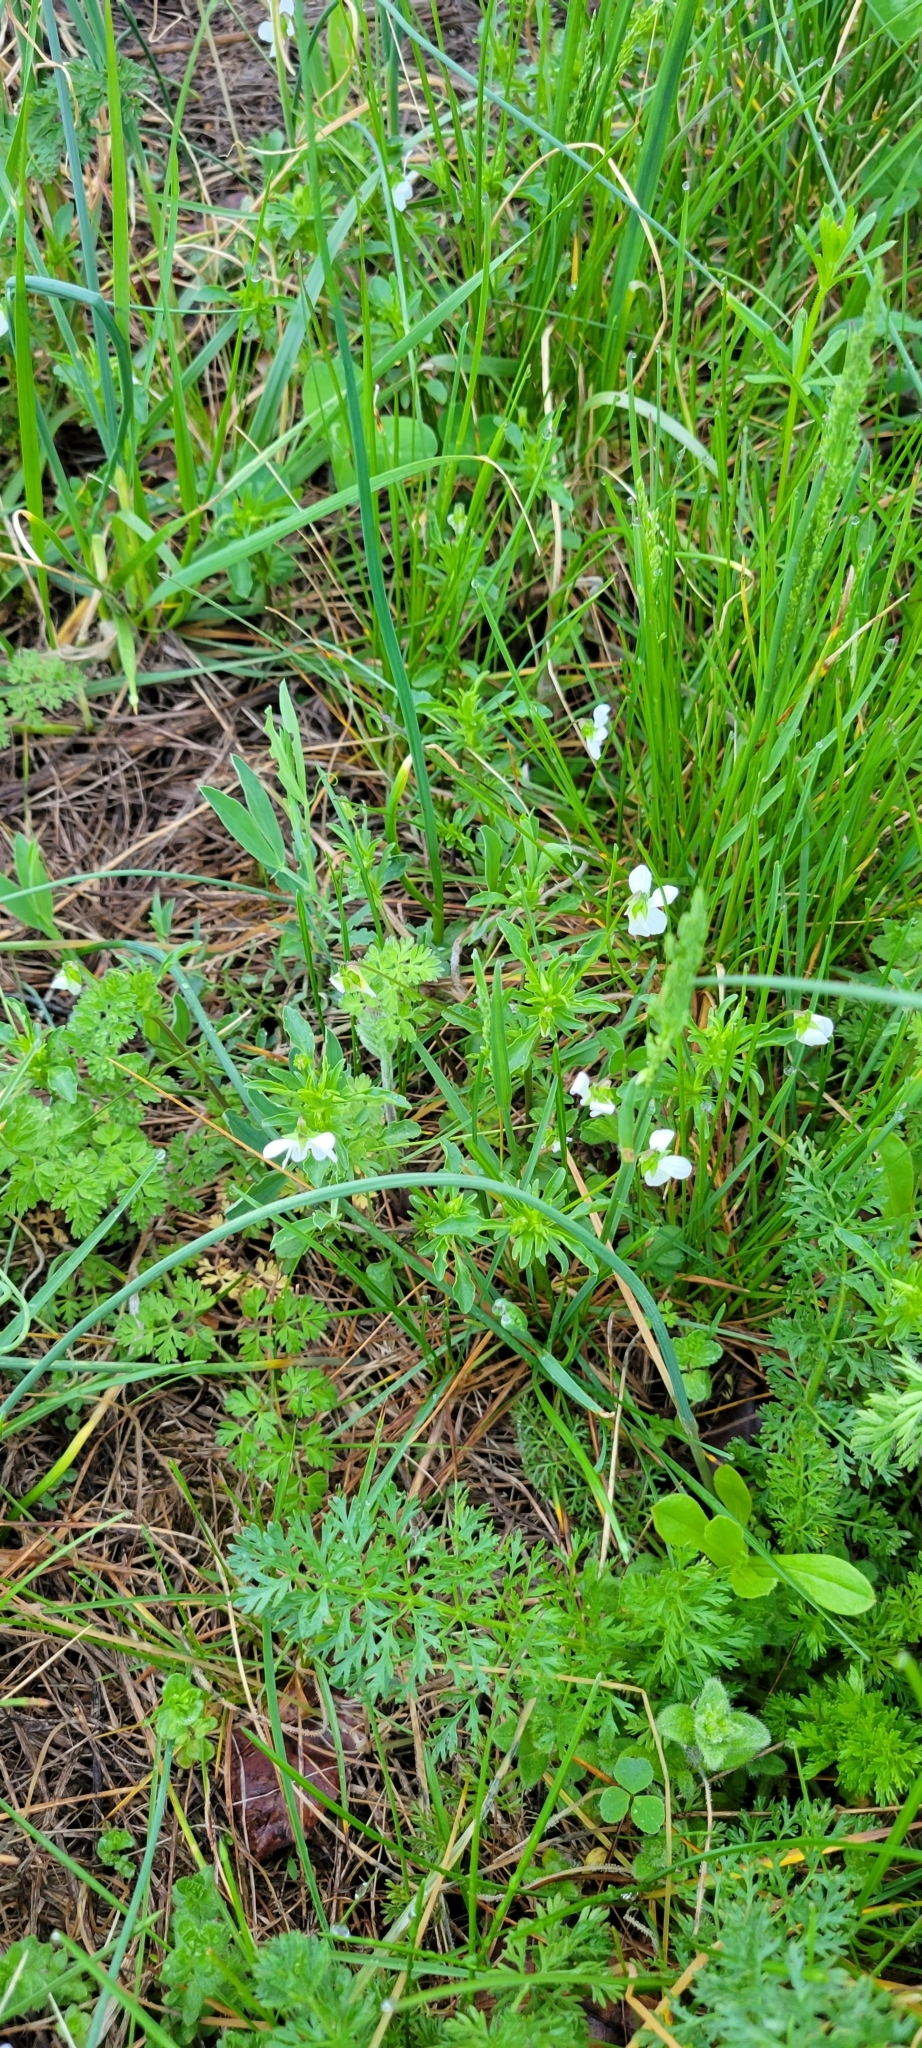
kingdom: Plantae
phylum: Tracheophyta
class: Magnoliopsida
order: Malpighiales
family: Violaceae
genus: Viola
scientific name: Viola rafinesquei
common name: American field pansy
